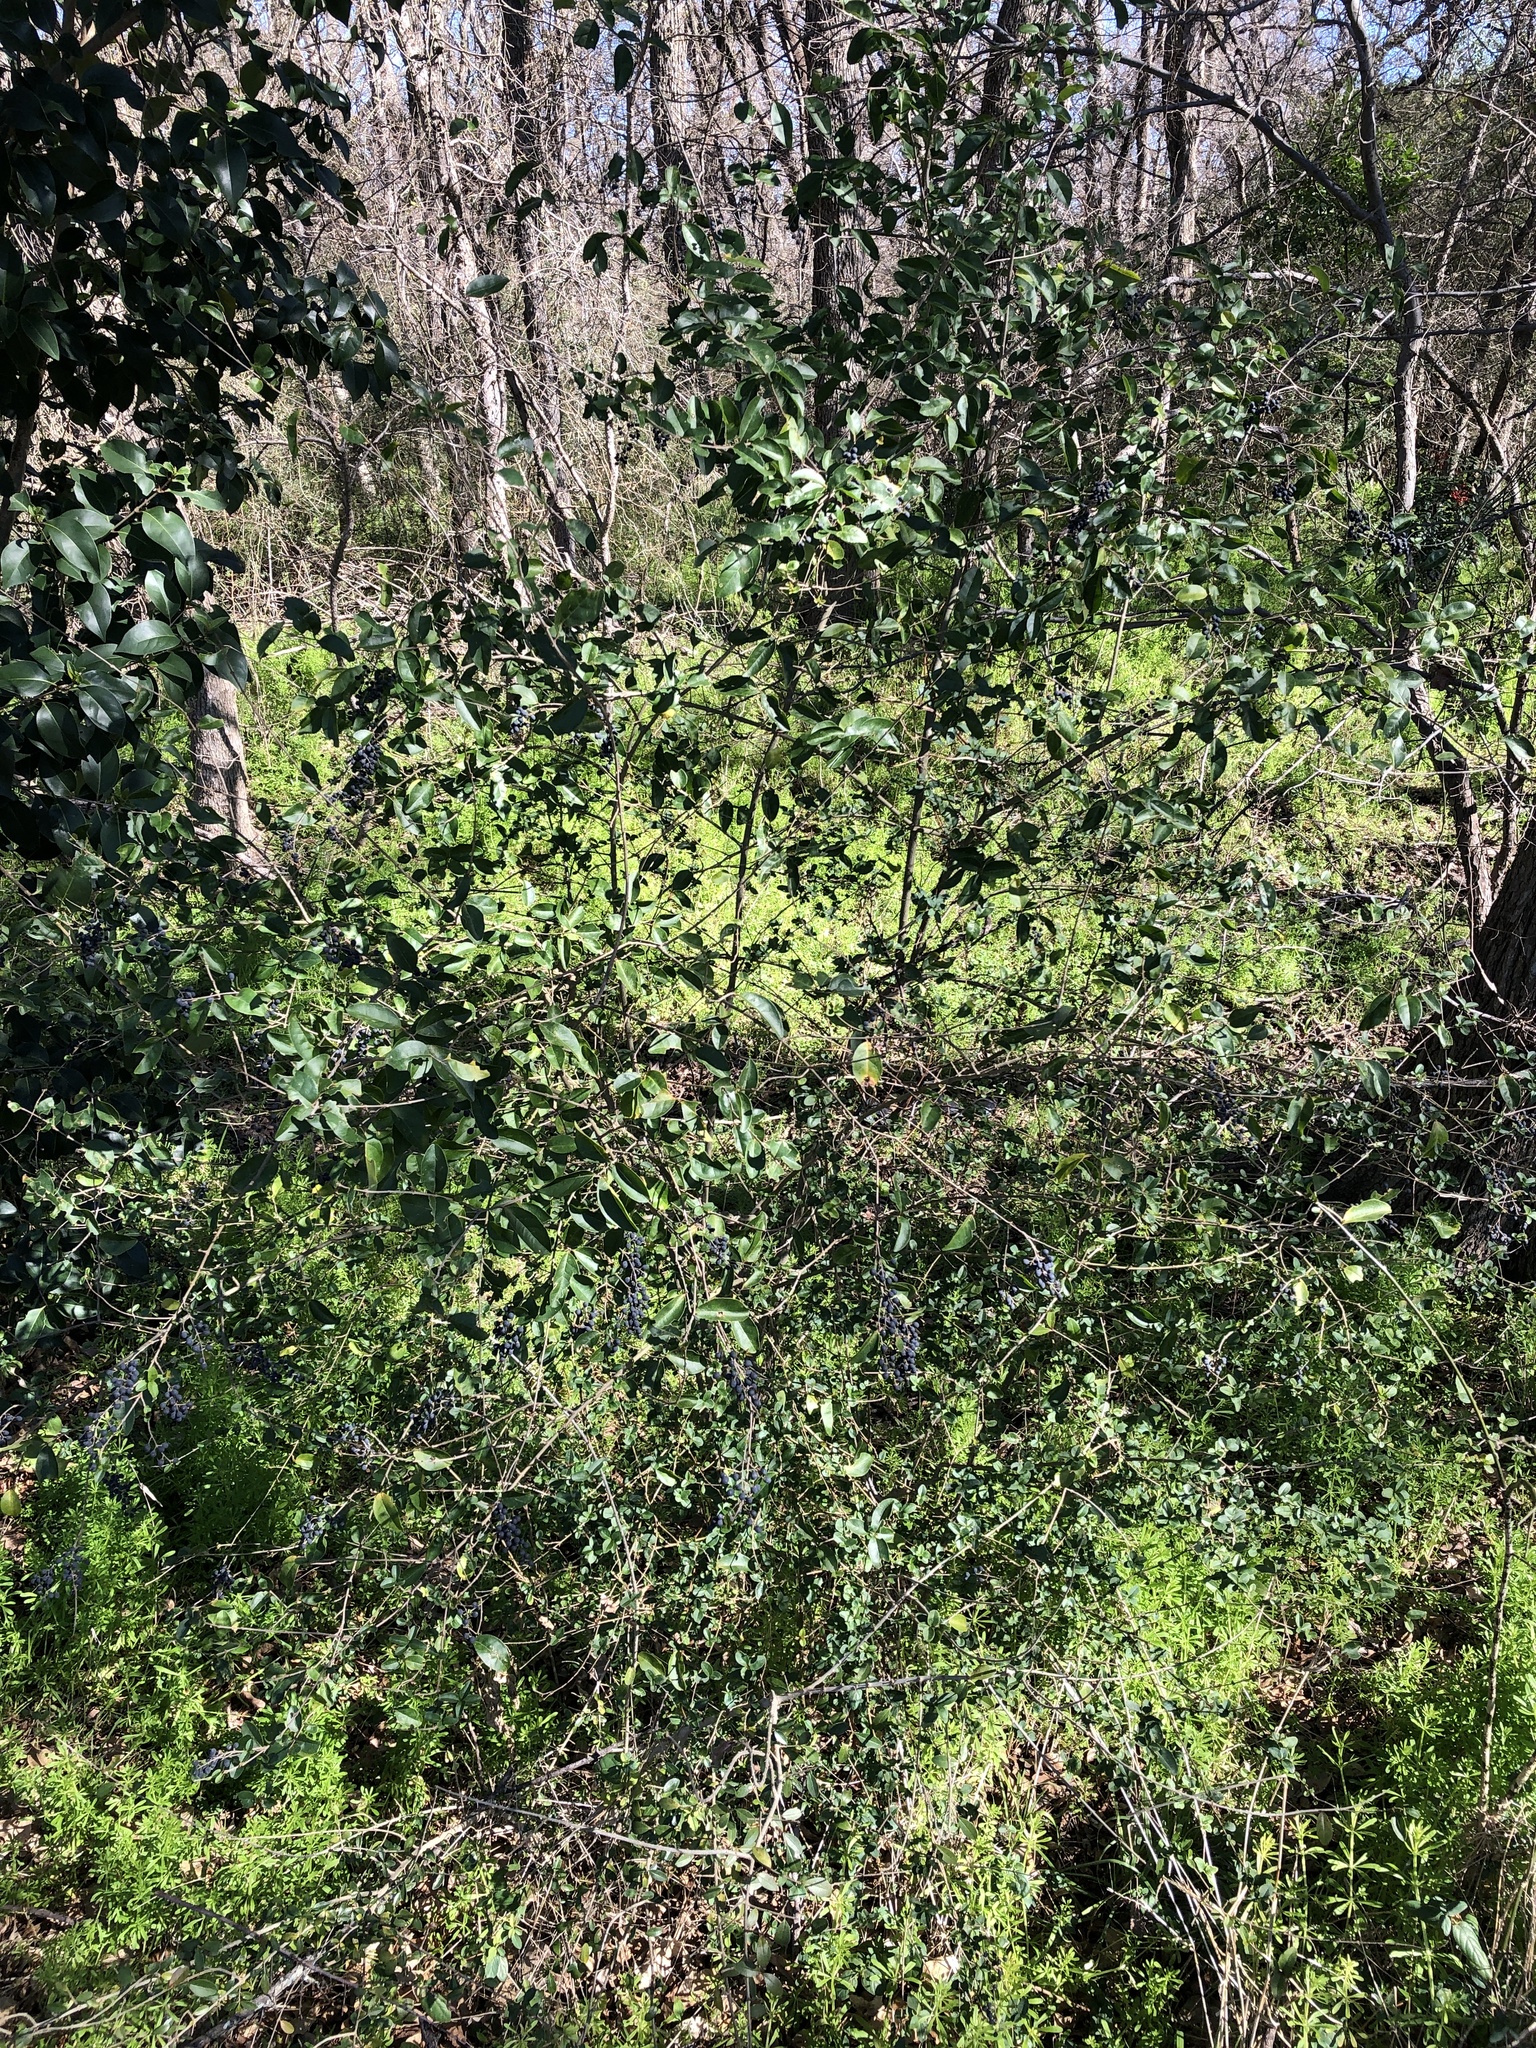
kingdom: Plantae
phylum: Tracheophyta
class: Magnoliopsida
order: Lamiales
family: Oleaceae
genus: Ligustrum
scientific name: Ligustrum sinense
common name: Chinese privet
